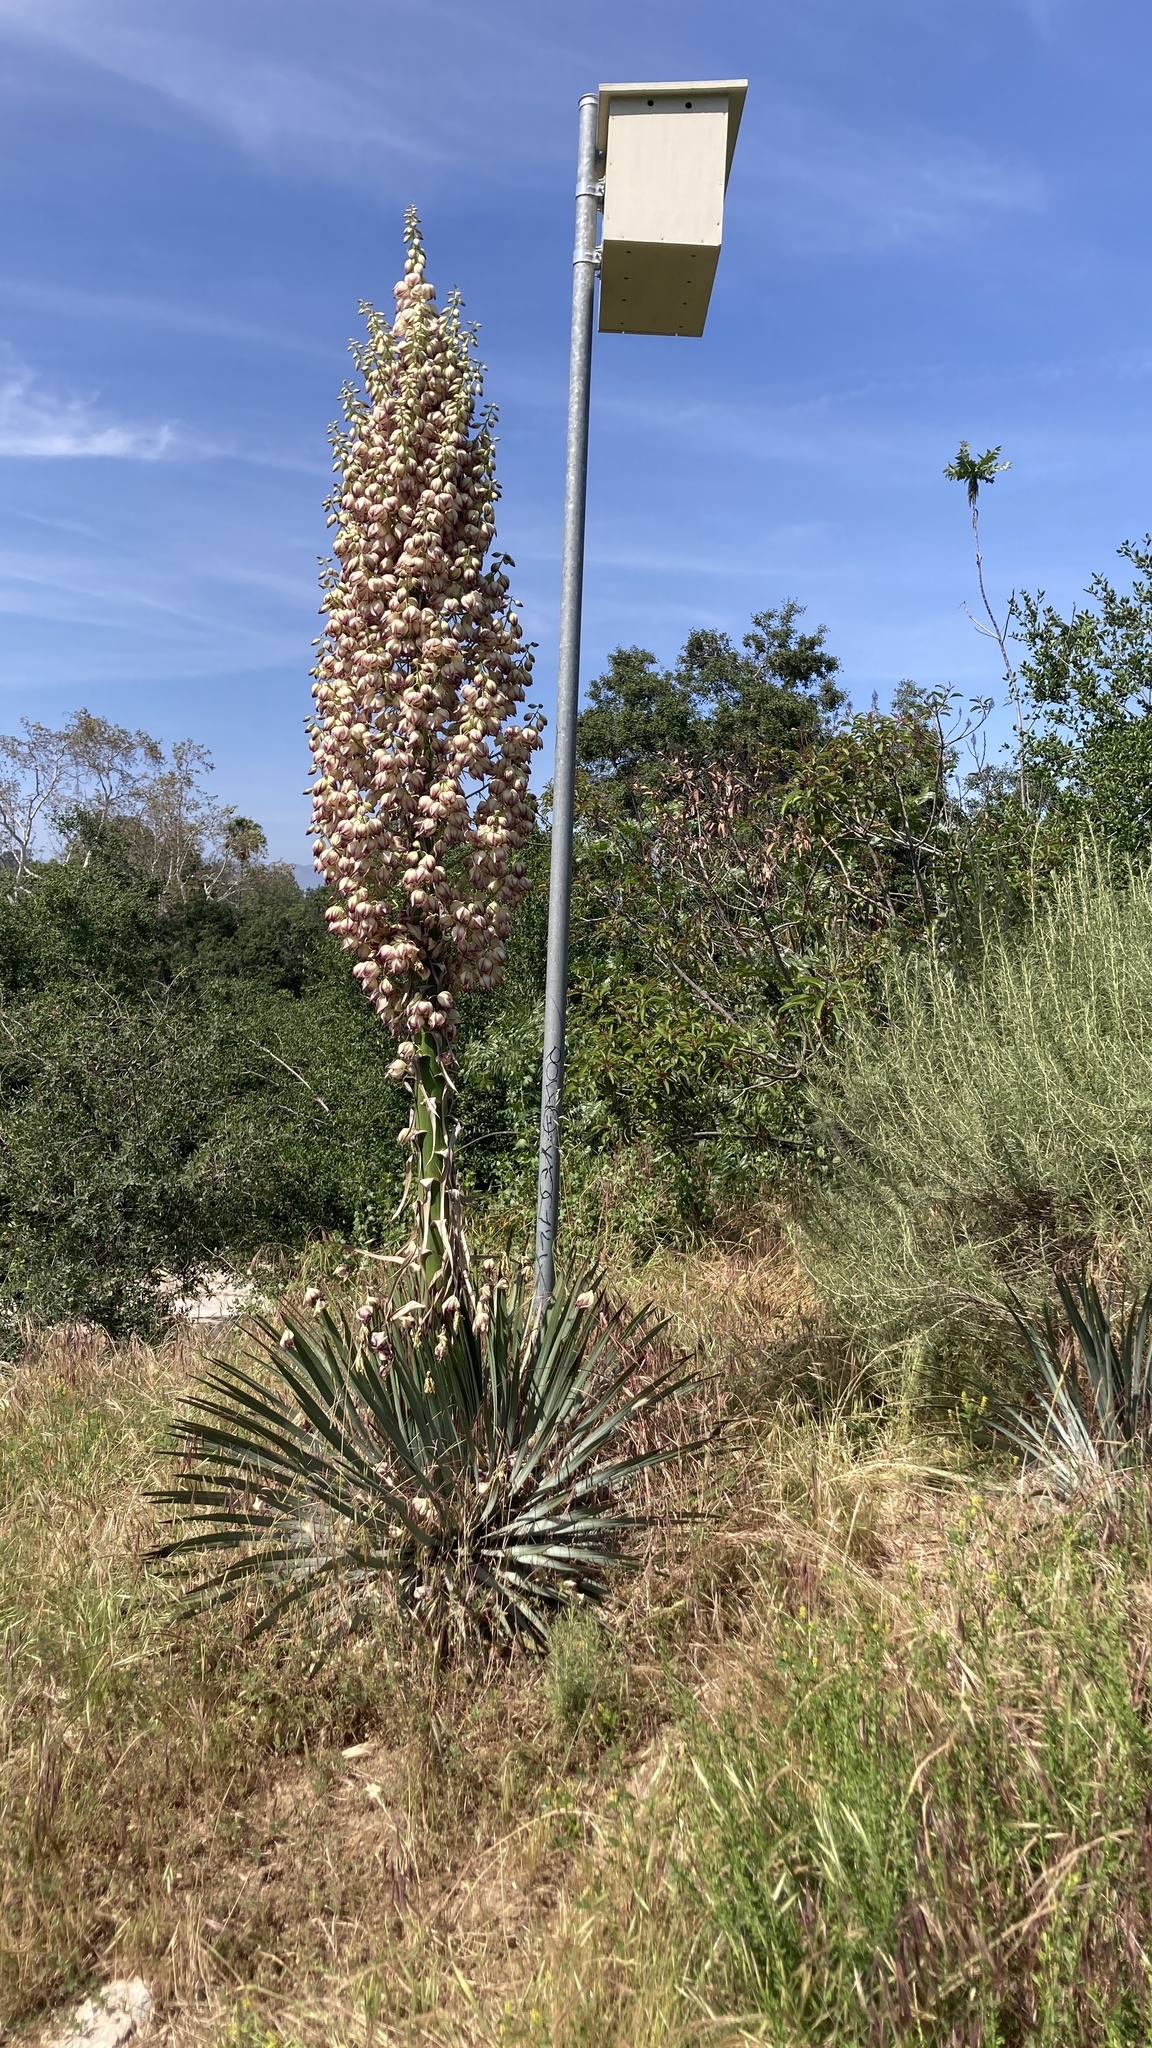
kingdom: Plantae
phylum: Tracheophyta
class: Liliopsida
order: Asparagales
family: Asparagaceae
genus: Hesperoyucca
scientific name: Hesperoyucca whipplei
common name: Our lord's-candle
